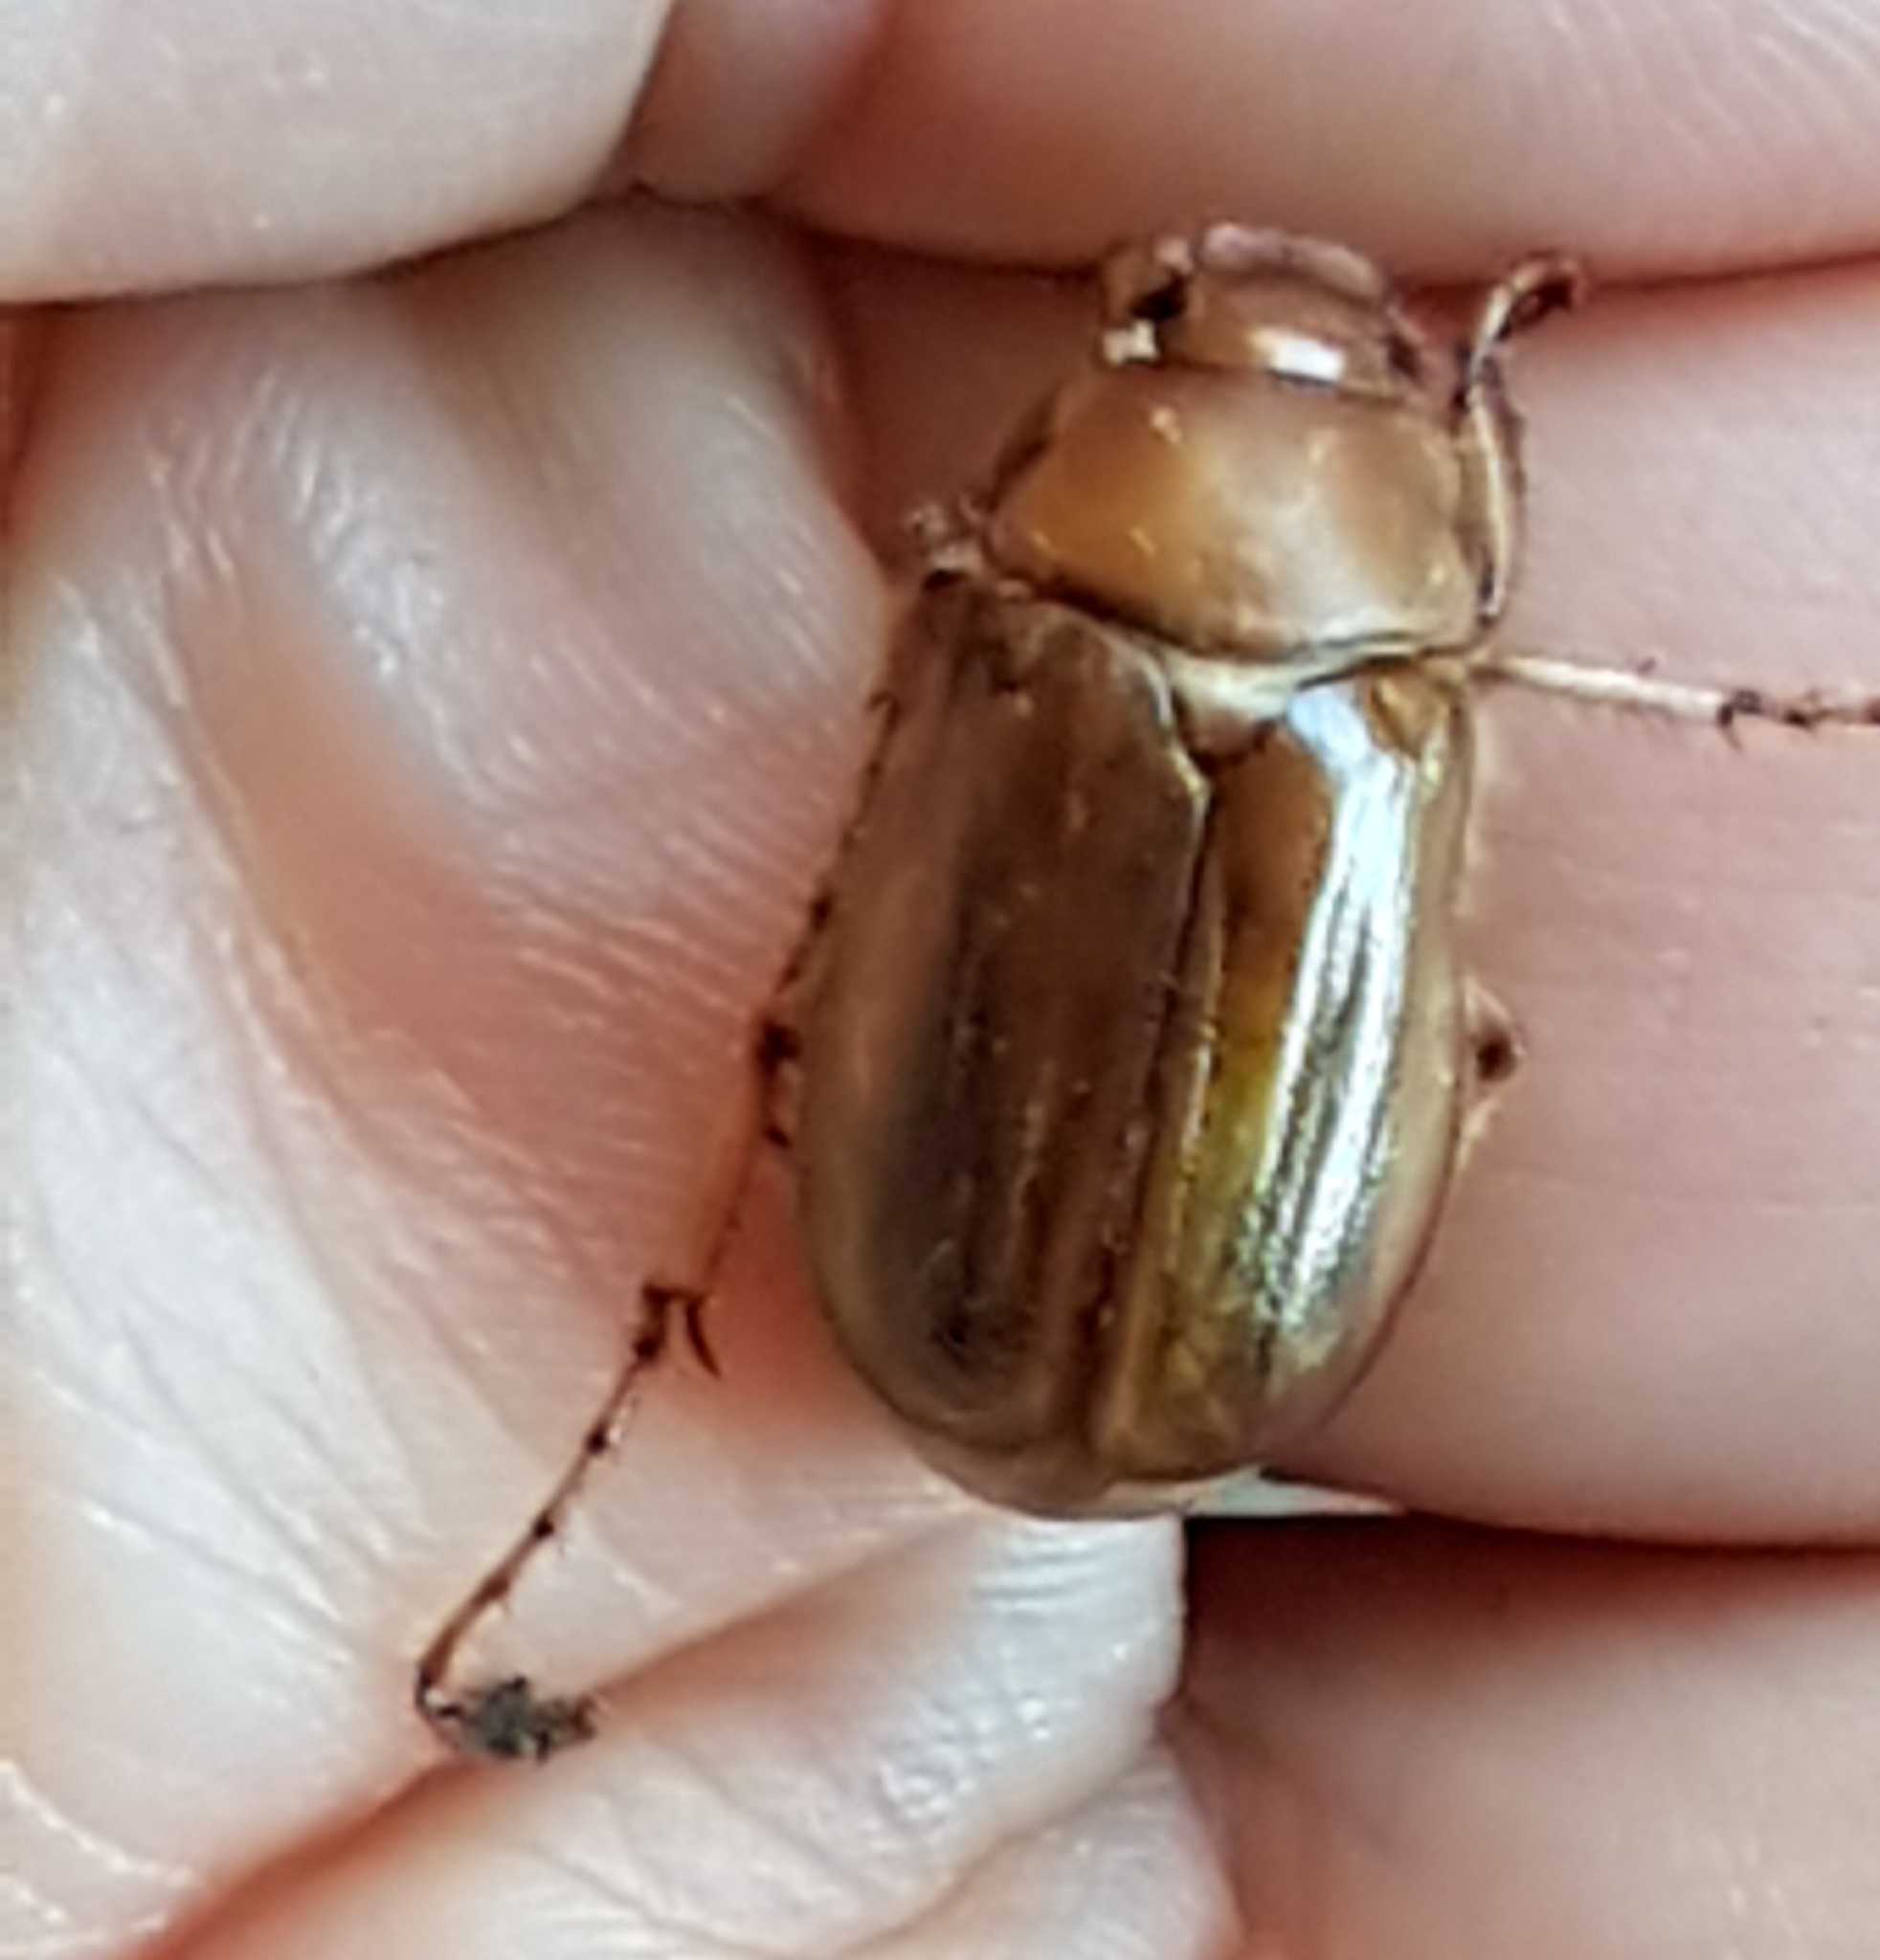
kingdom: Animalia
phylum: Arthropoda
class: Insecta
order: Coleoptera
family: Scarabaeidae
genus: Amphimallon
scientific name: Amphimallon solstitiale
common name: Summer chafer
